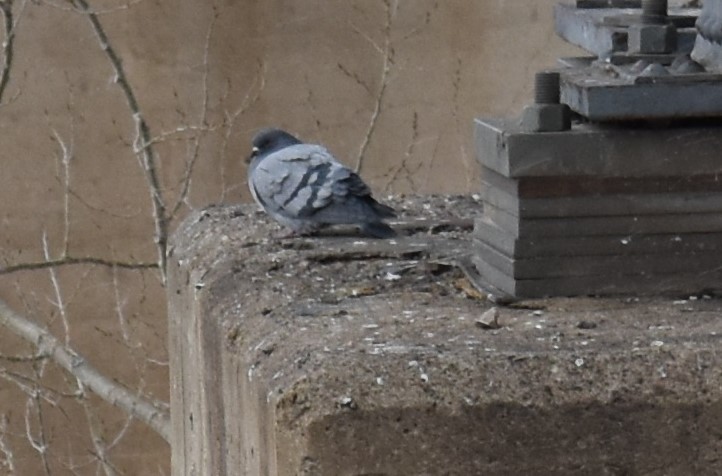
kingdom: Animalia
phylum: Chordata
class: Aves
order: Columbiformes
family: Columbidae
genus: Columba
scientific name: Columba livia
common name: Rock pigeon
